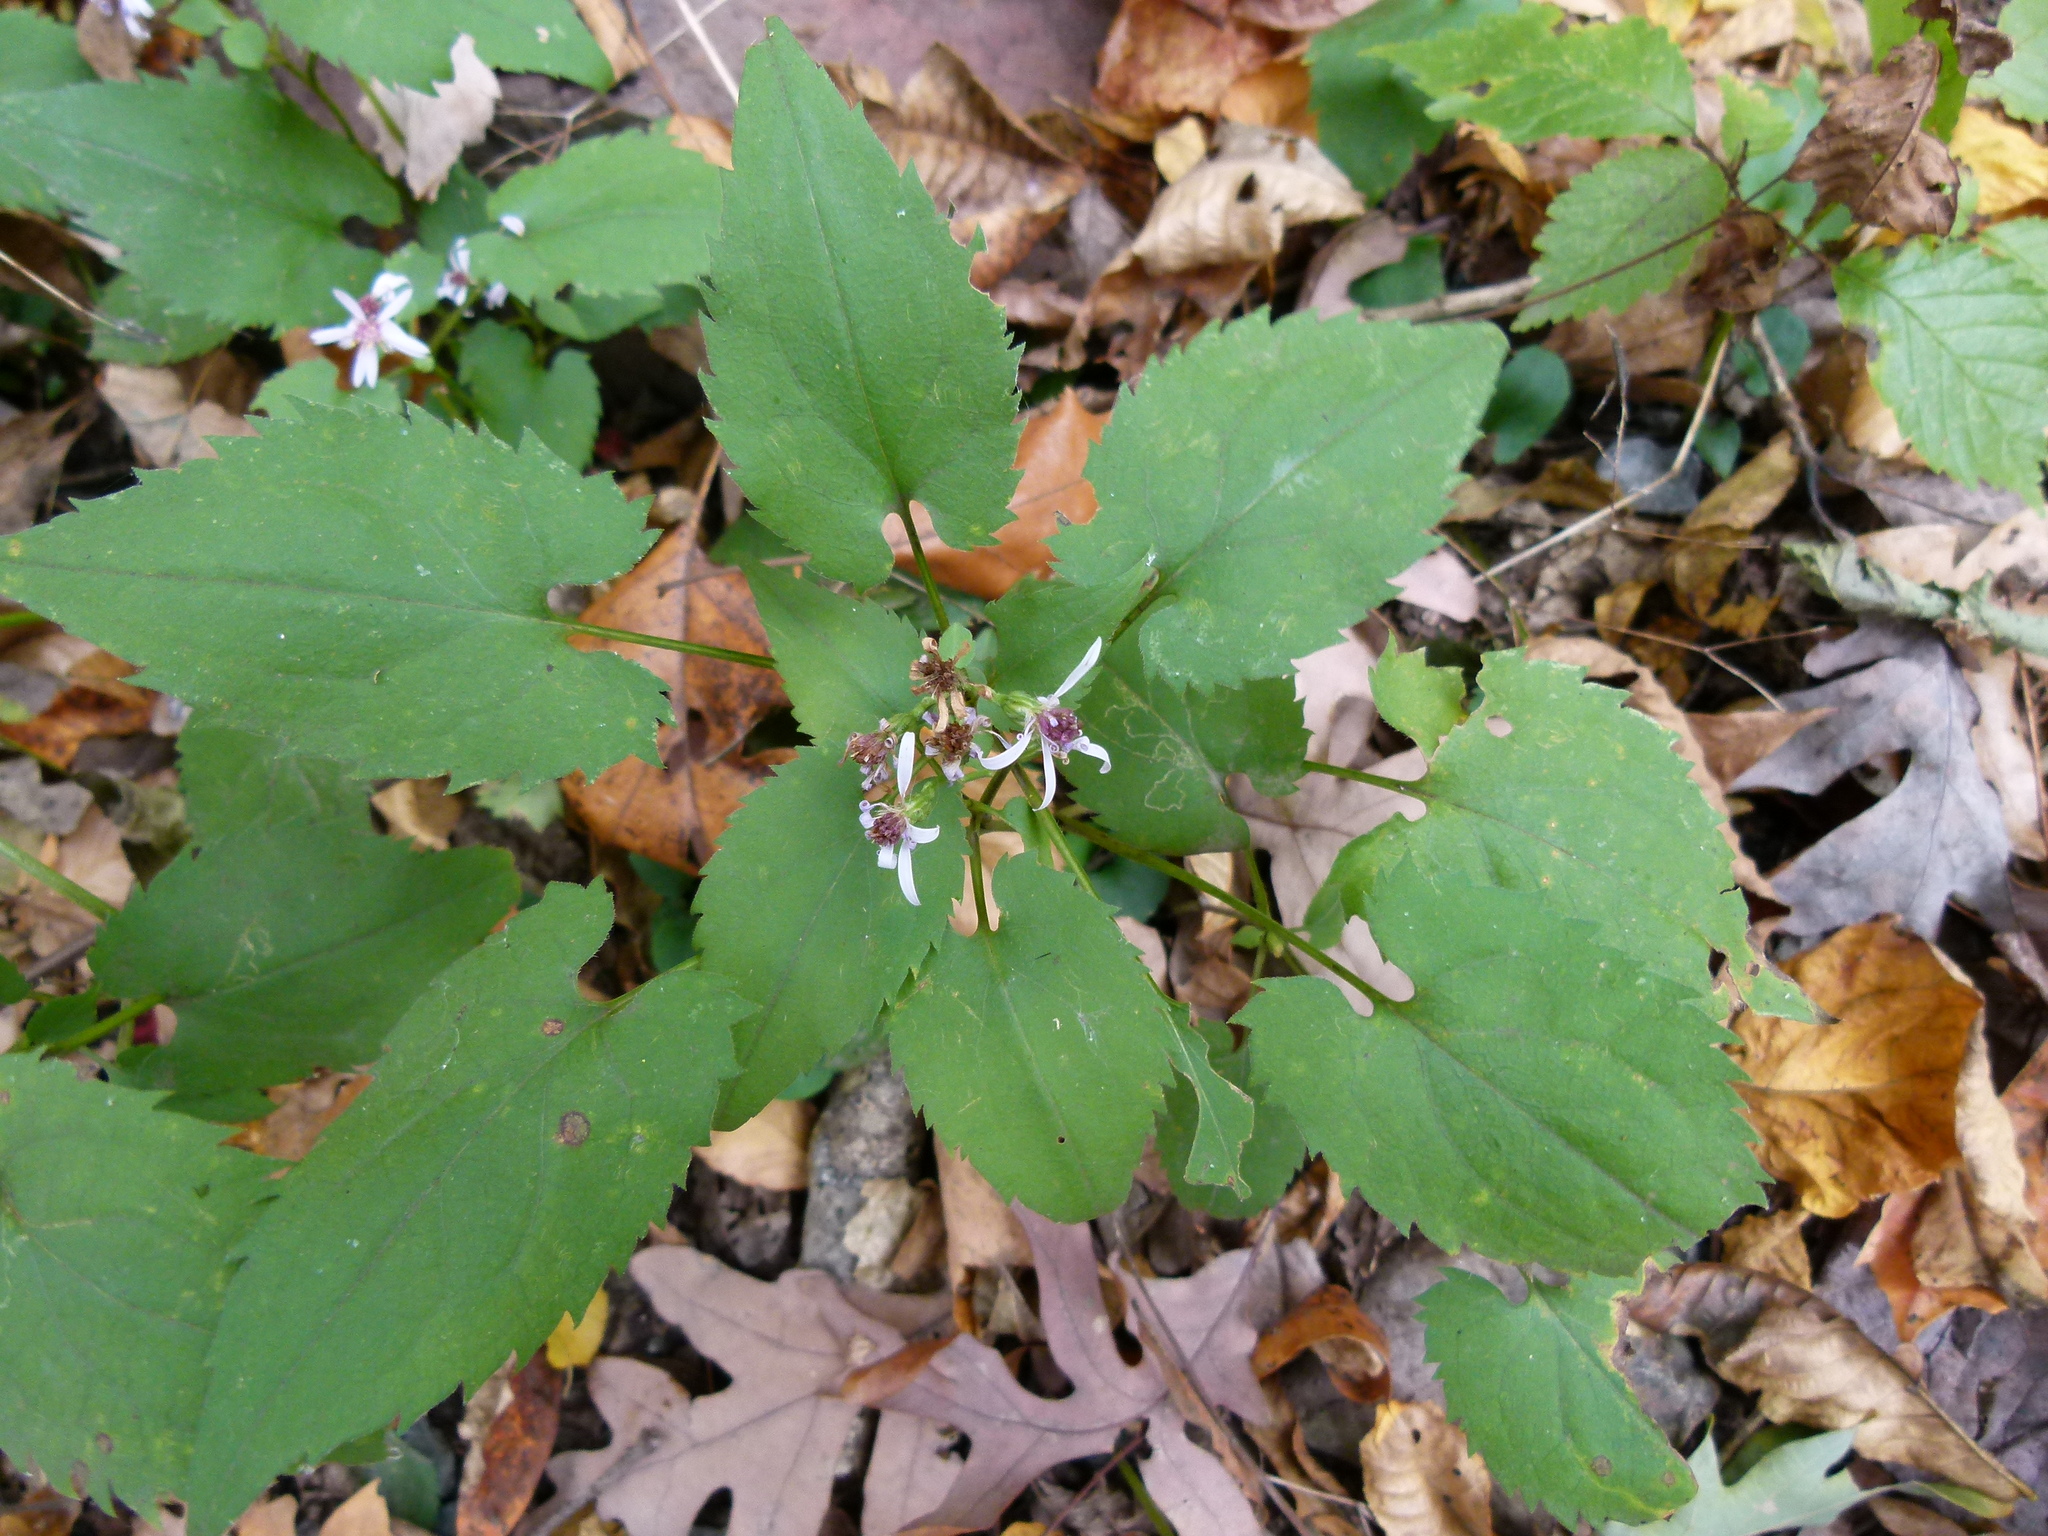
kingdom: Plantae
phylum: Tracheophyta
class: Magnoliopsida
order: Asterales
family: Asteraceae
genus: Symphyotrichum
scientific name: Symphyotrichum cordifolium
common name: Beeweed
